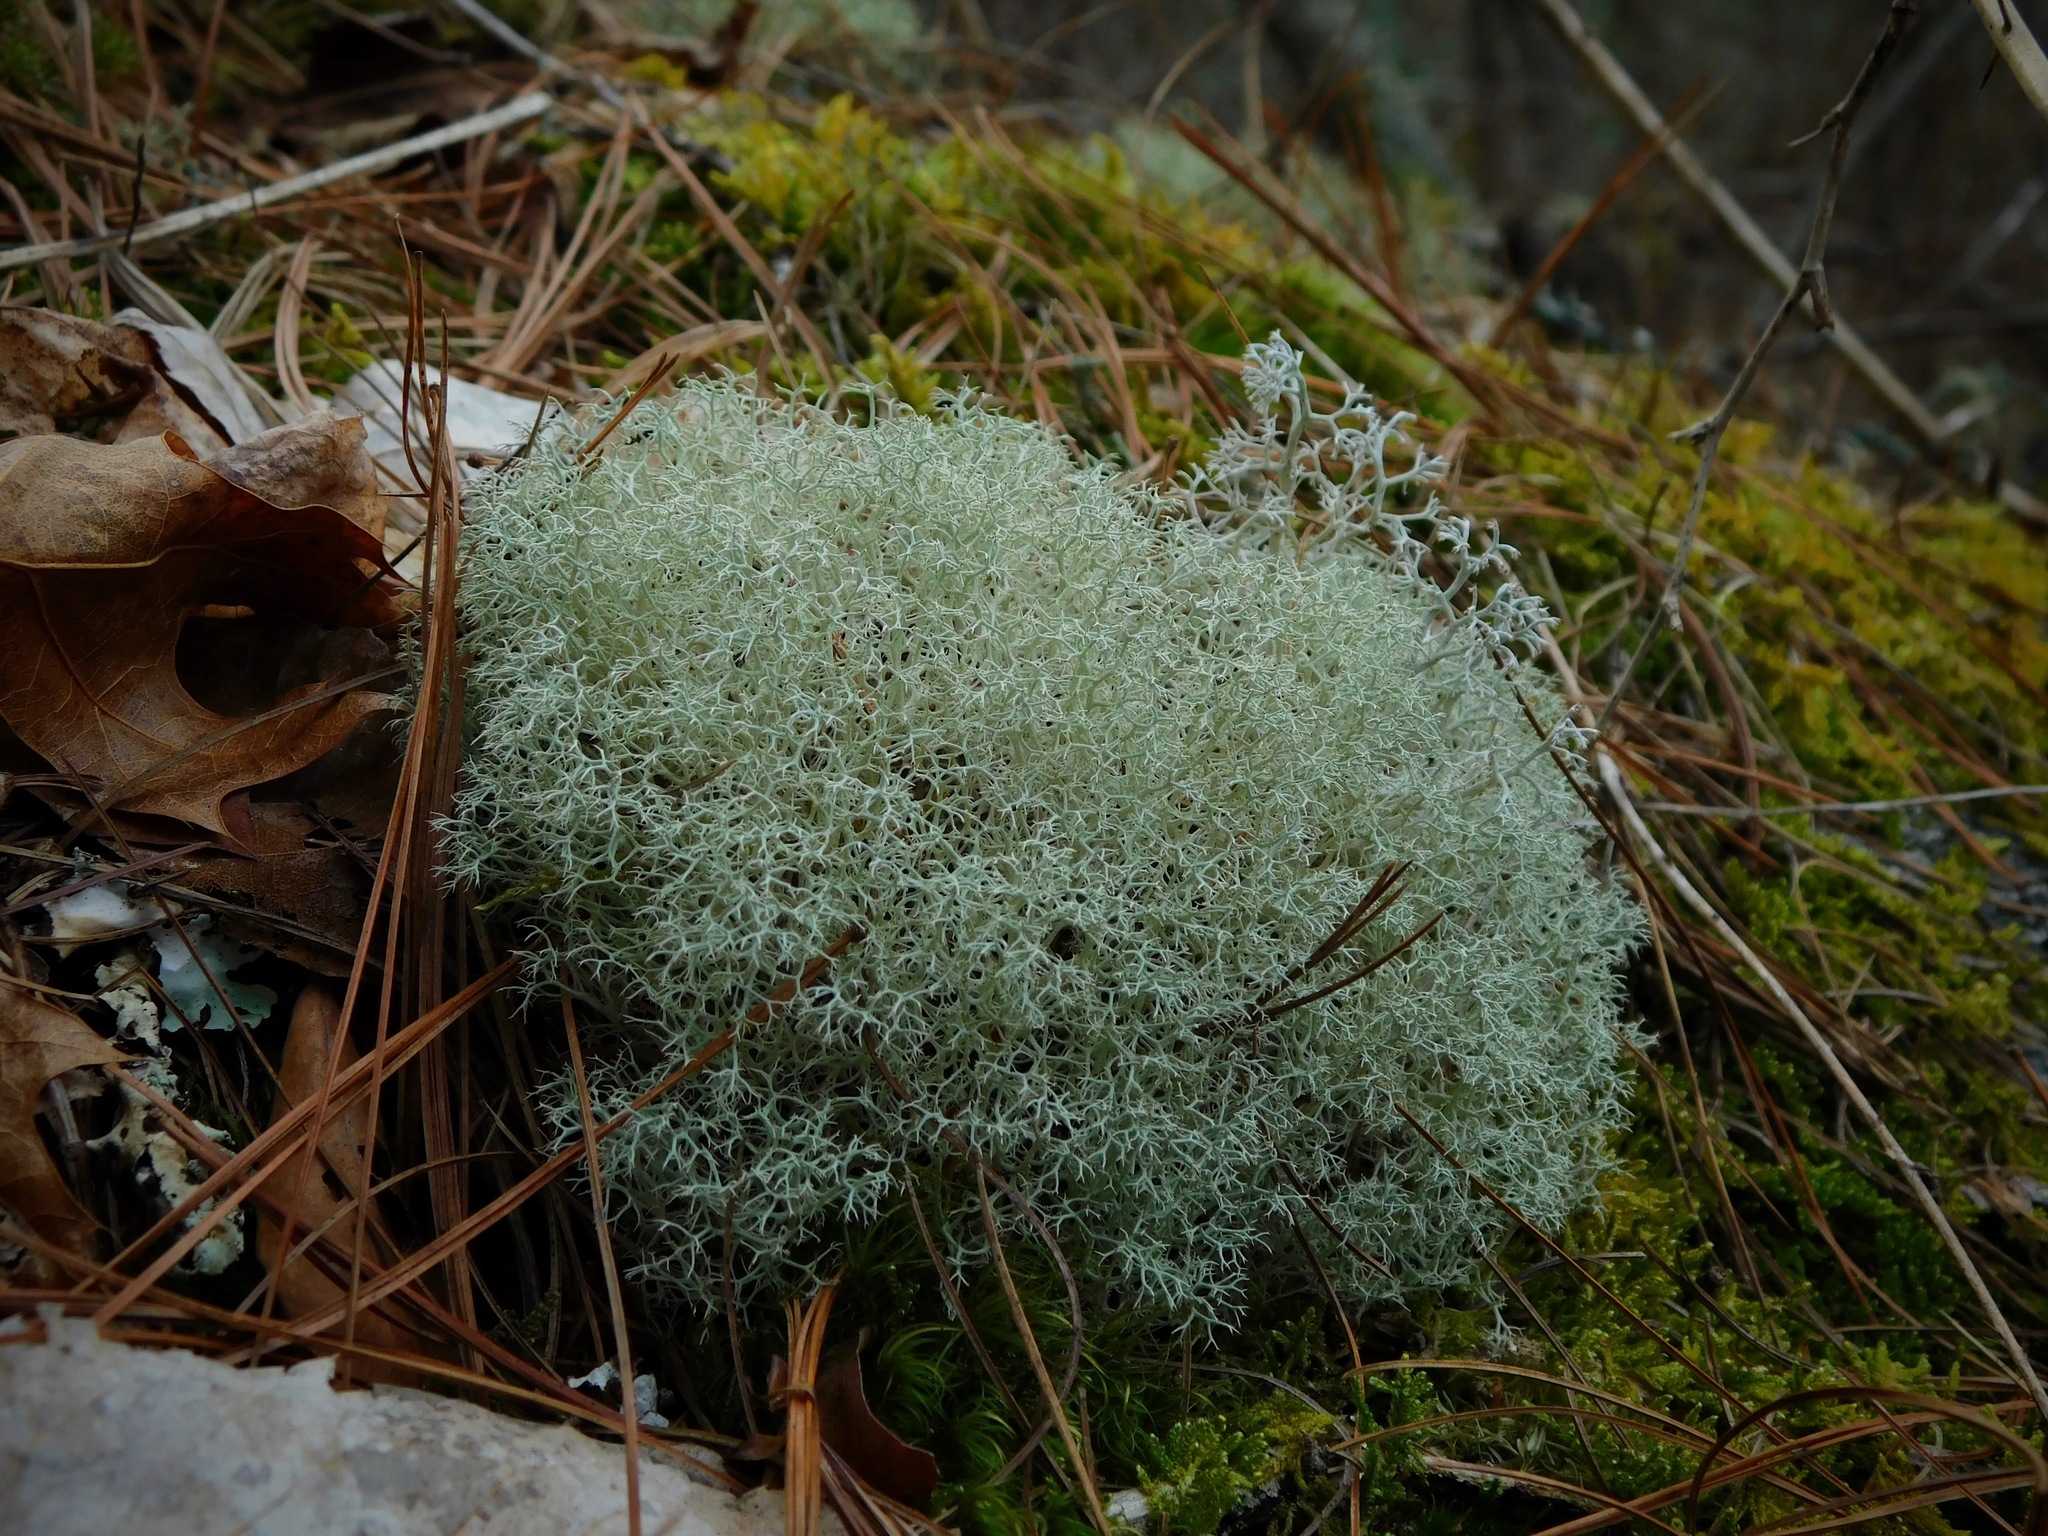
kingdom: Fungi
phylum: Ascomycota
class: Lecanoromycetes
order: Lecanorales
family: Cladoniaceae
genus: Cladonia
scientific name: Cladonia subtenuis
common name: Dixie reindeer lichen
